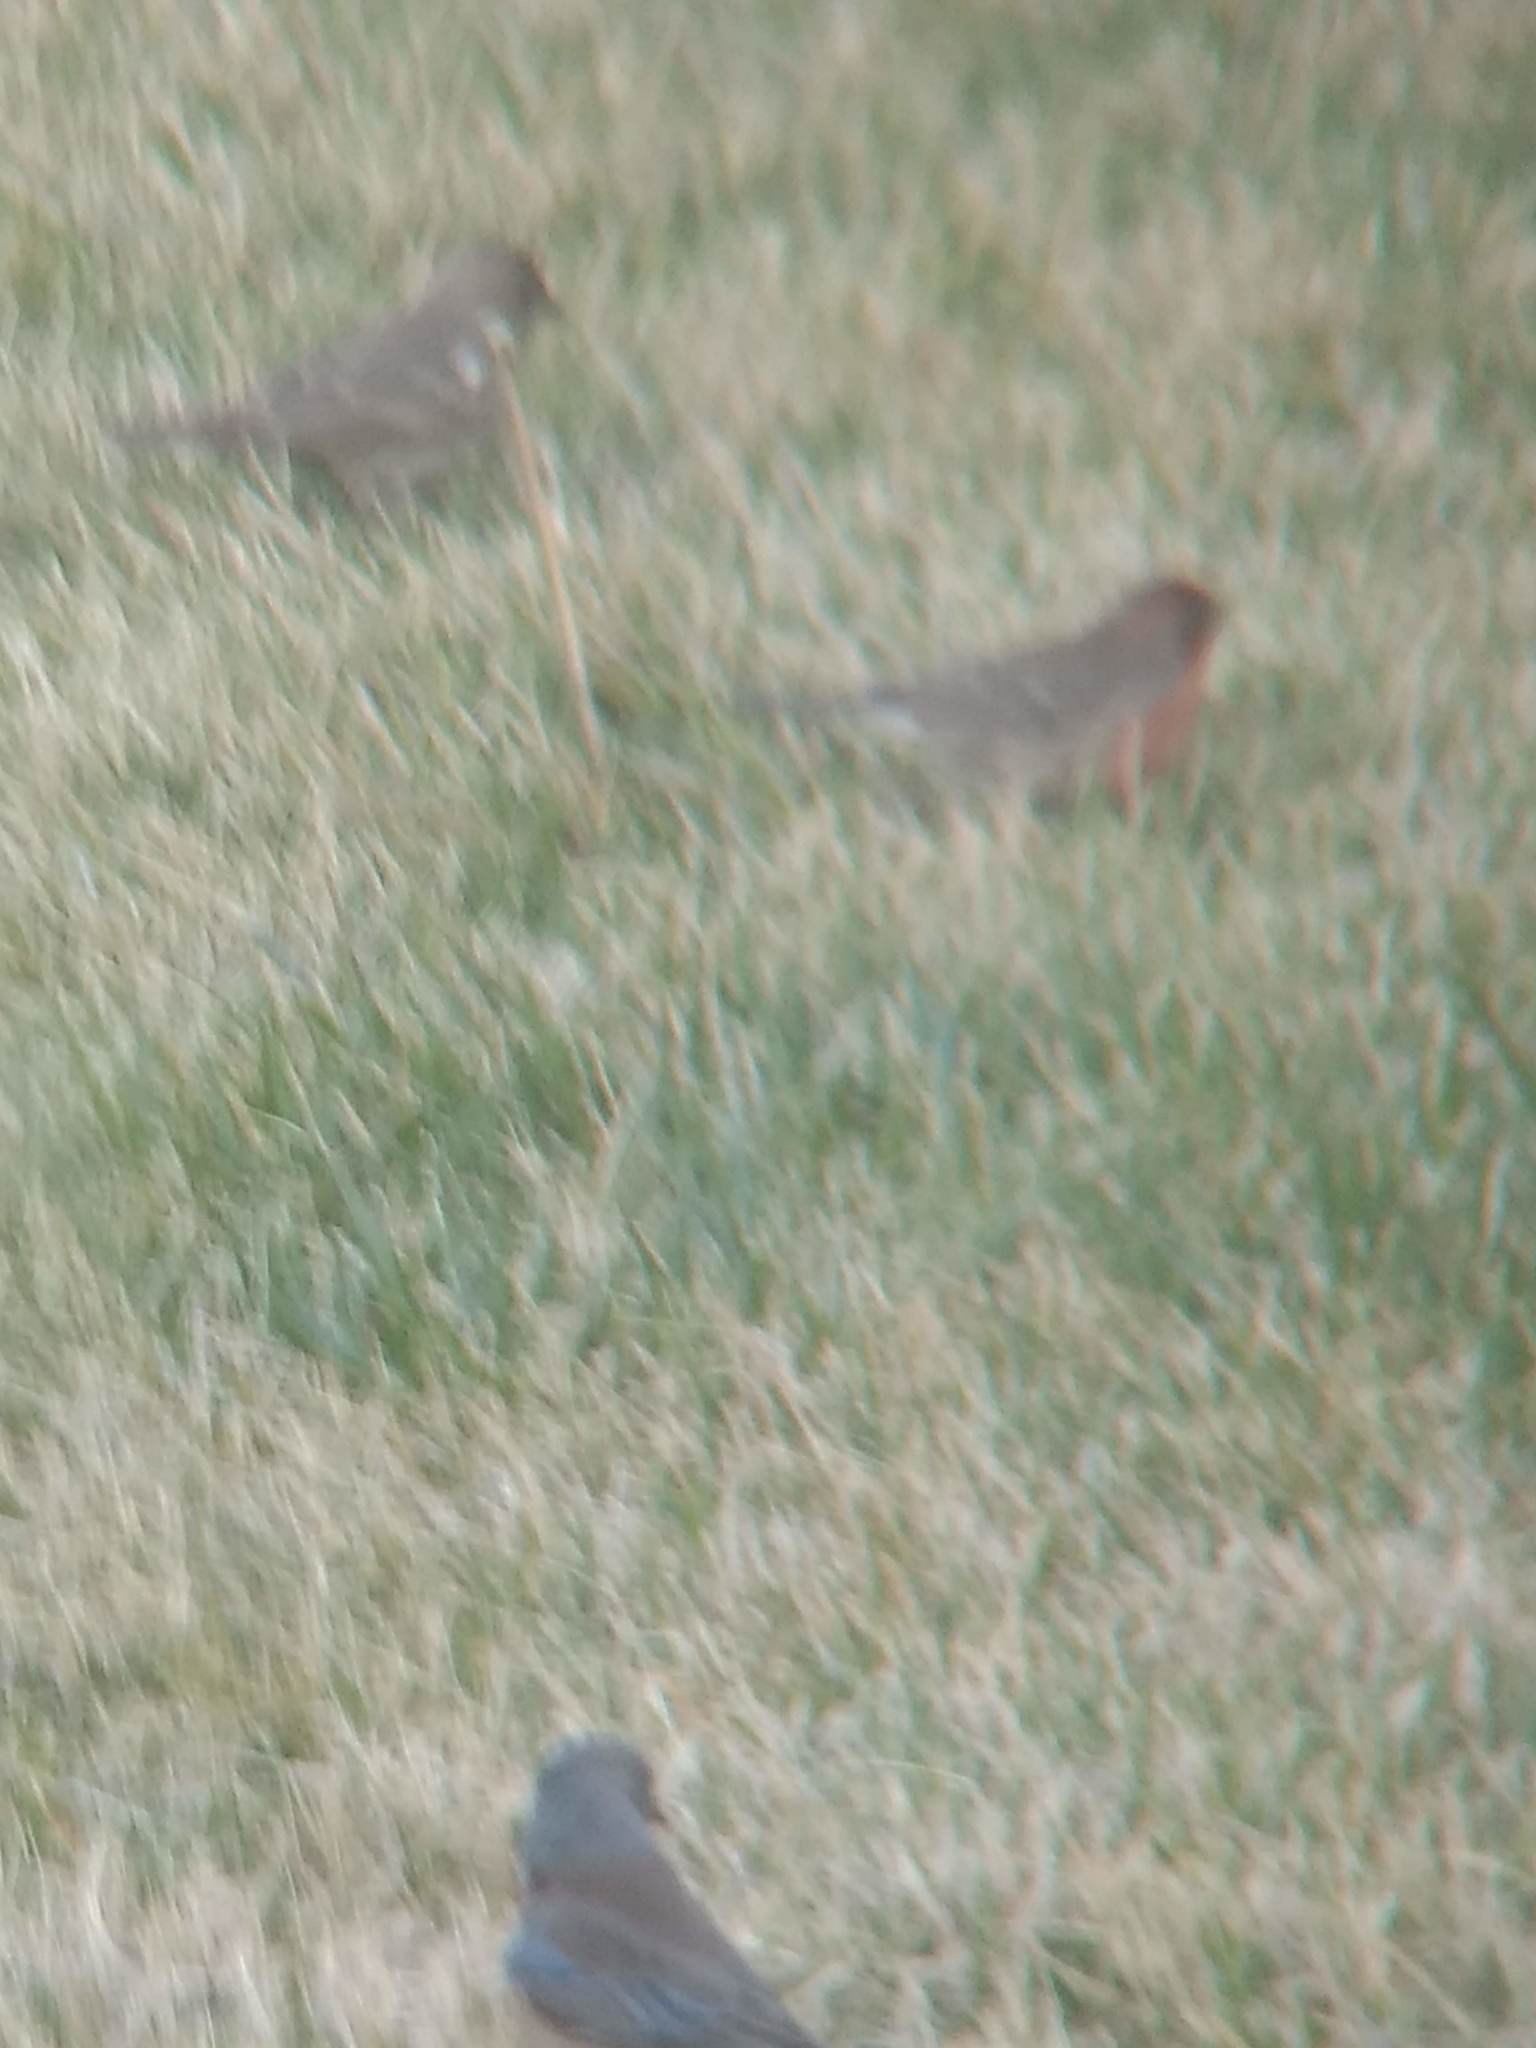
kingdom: Animalia
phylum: Chordata
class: Aves
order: Passeriformes
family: Fringillidae
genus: Haemorhous
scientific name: Haemorhous mexicanus
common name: House finch
